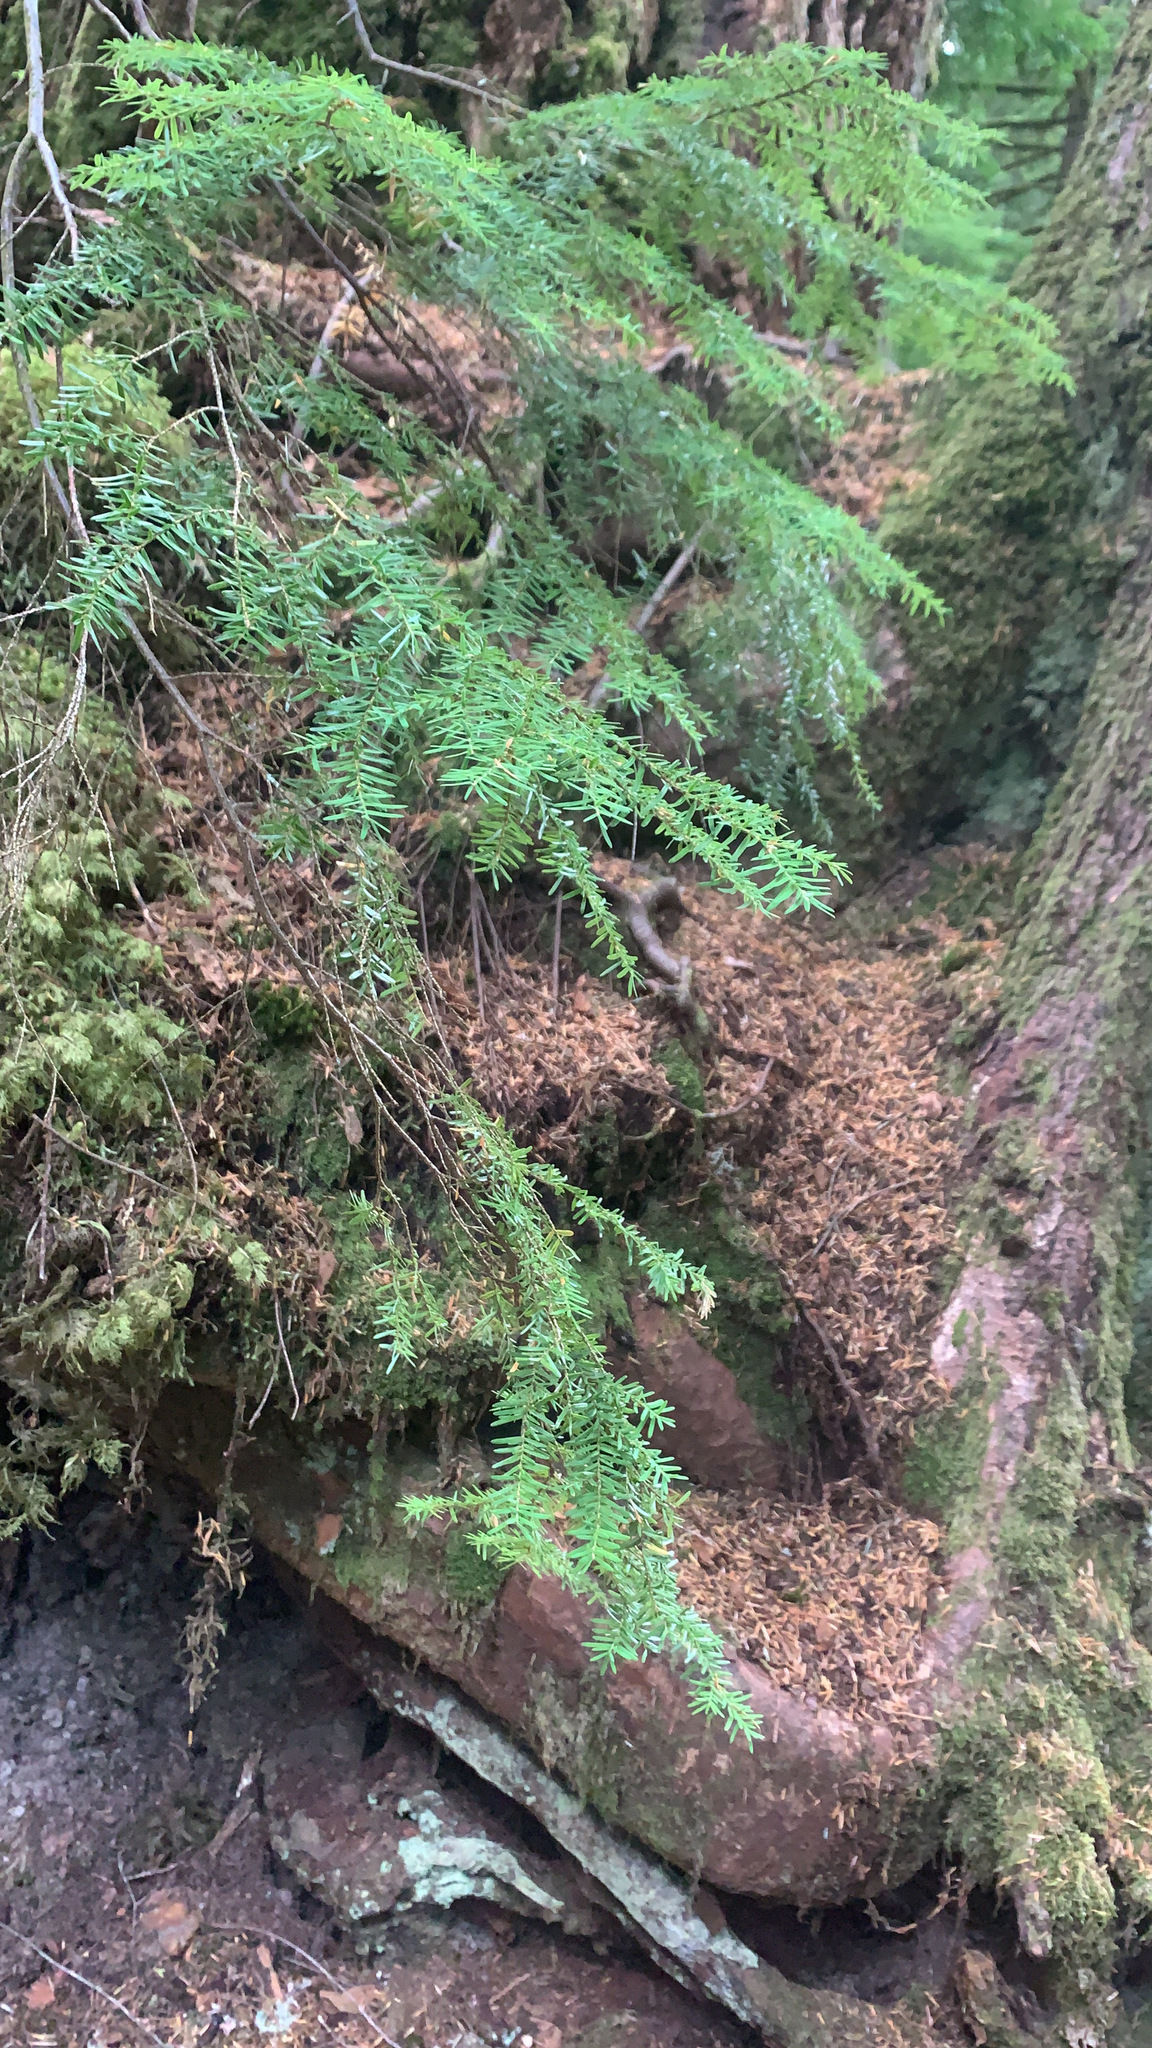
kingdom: Plantae
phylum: Tracheophyta
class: Pinopsida
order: Pinales
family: Pinaceae
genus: Tsuga
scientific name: Tsuga heterophylla
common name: Western hemlock
